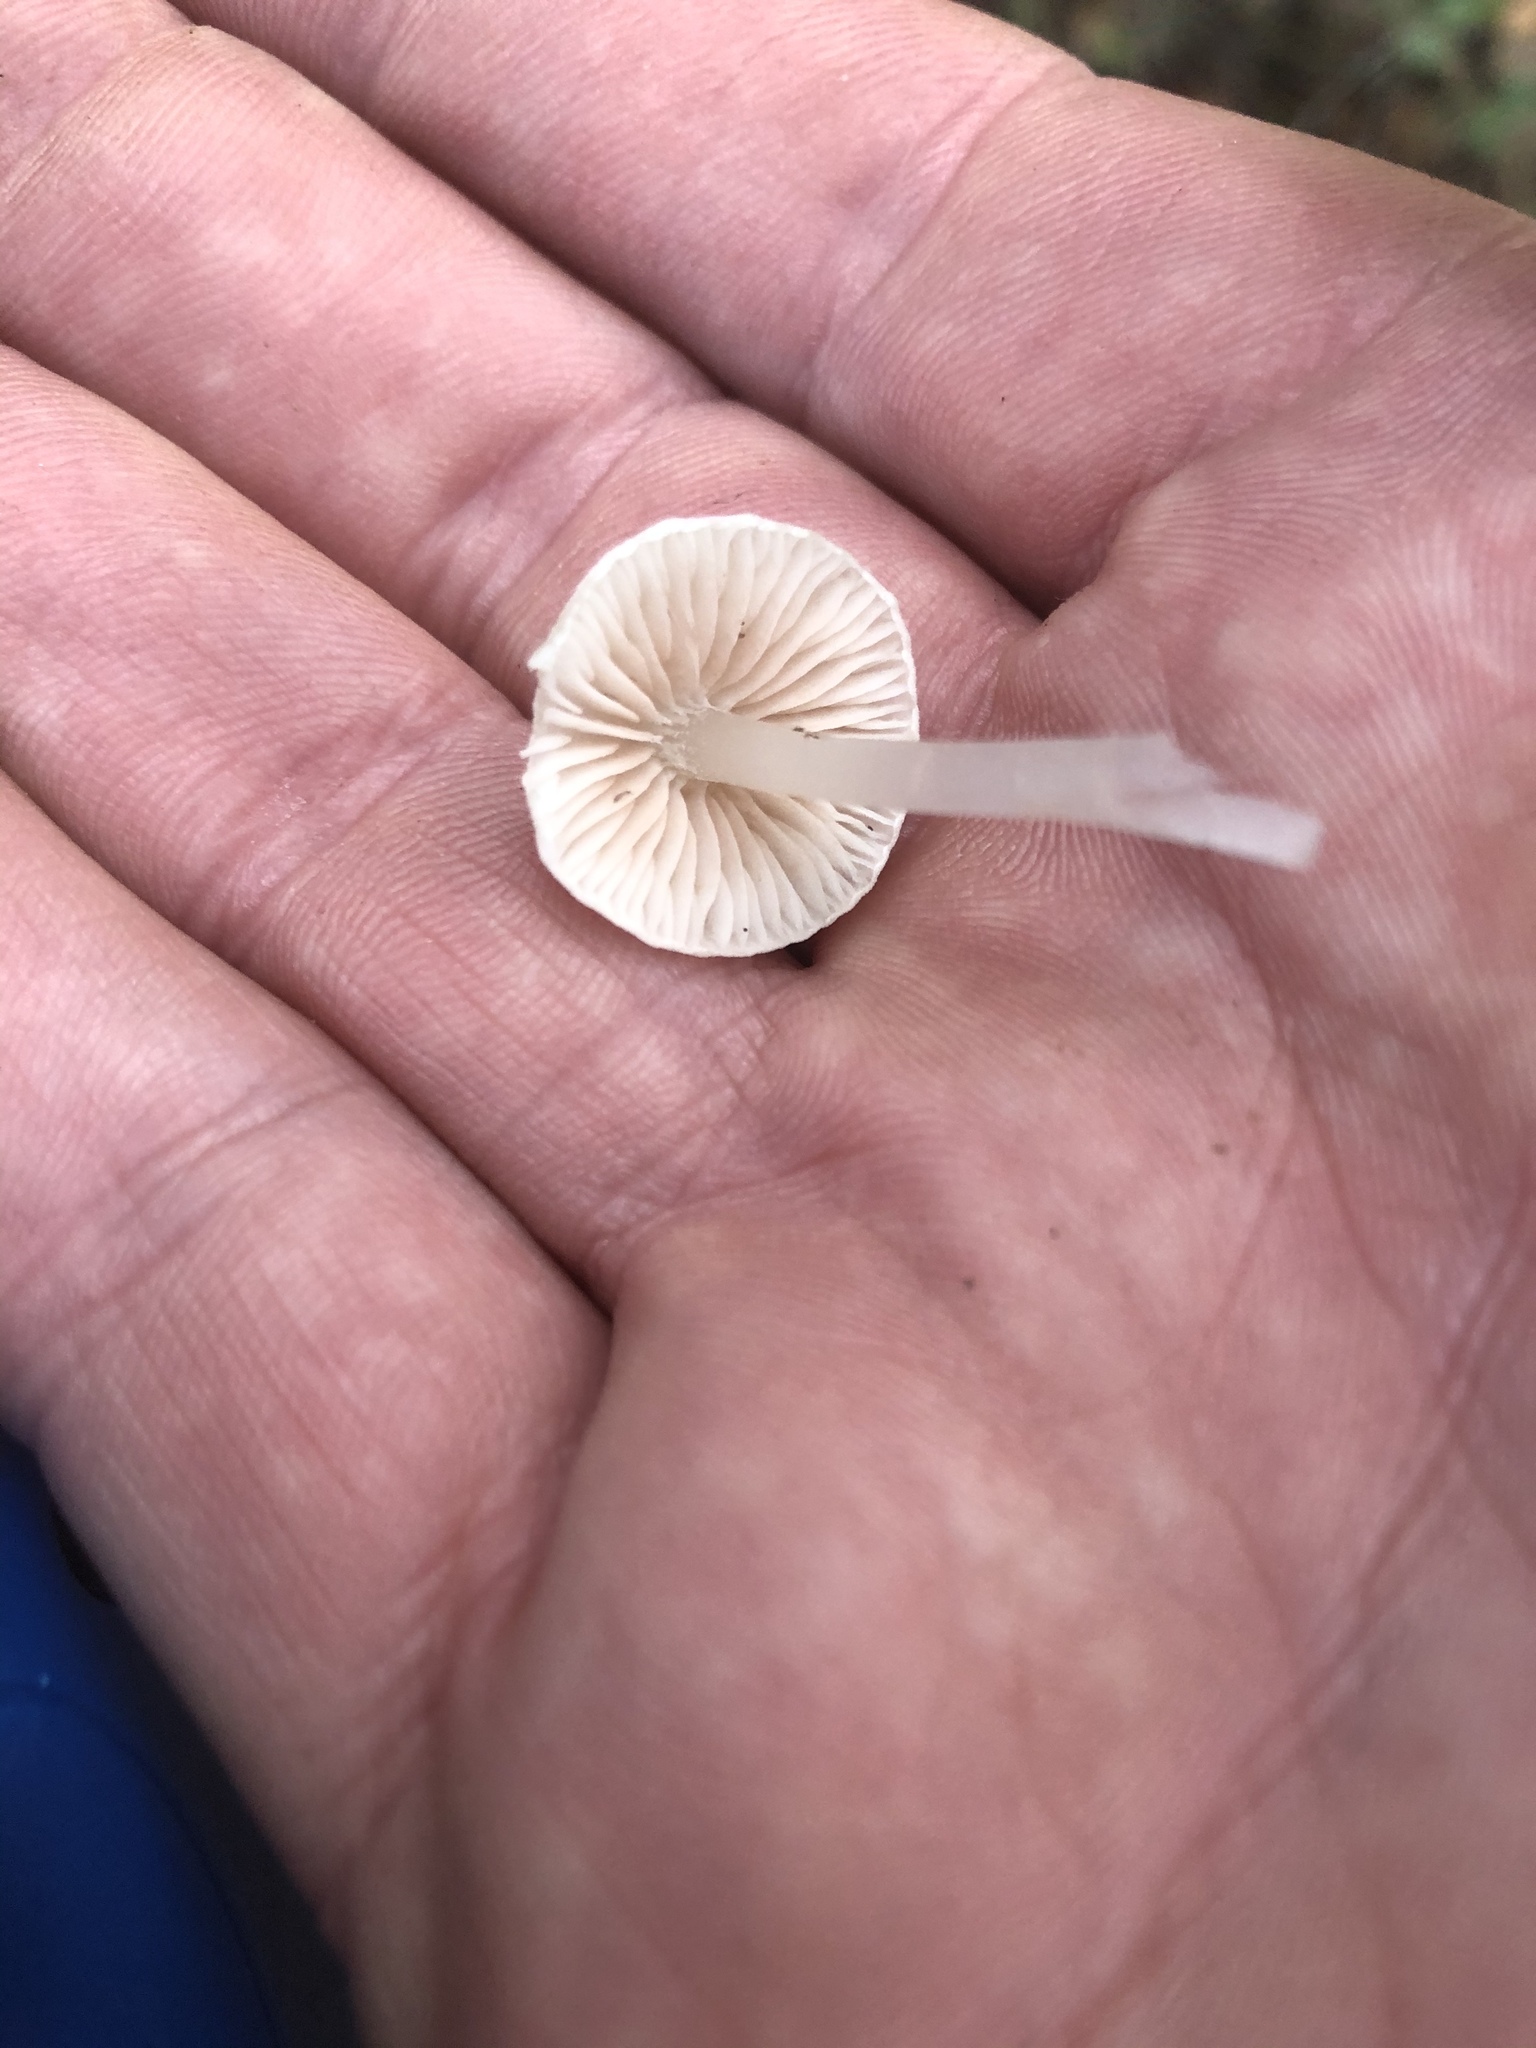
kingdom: Fungi
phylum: Basidiomycota
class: Agaricomycetes
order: Agaricales
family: Entolomataceae
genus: Entoloma
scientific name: Entoloma adnatifolium
